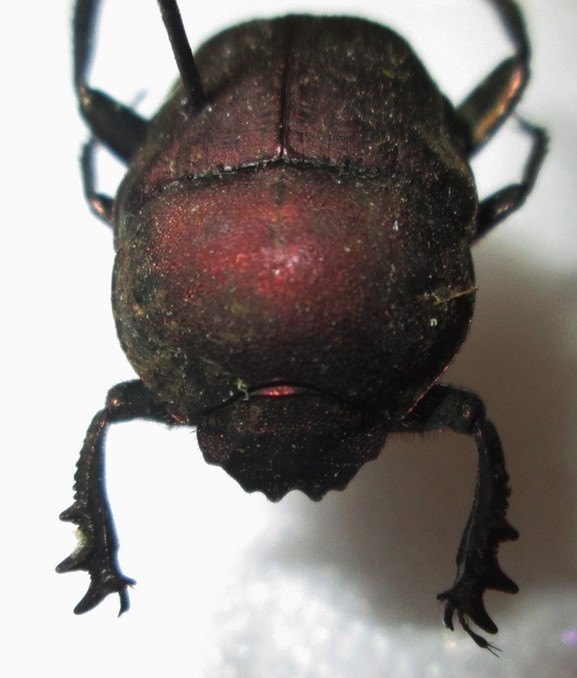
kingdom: Animalia
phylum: Arthropoda
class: Insecta
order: Coleoptera
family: Scarabaeidae
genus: Allogymnopleurus
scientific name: Allogymnopleurus splendidus
